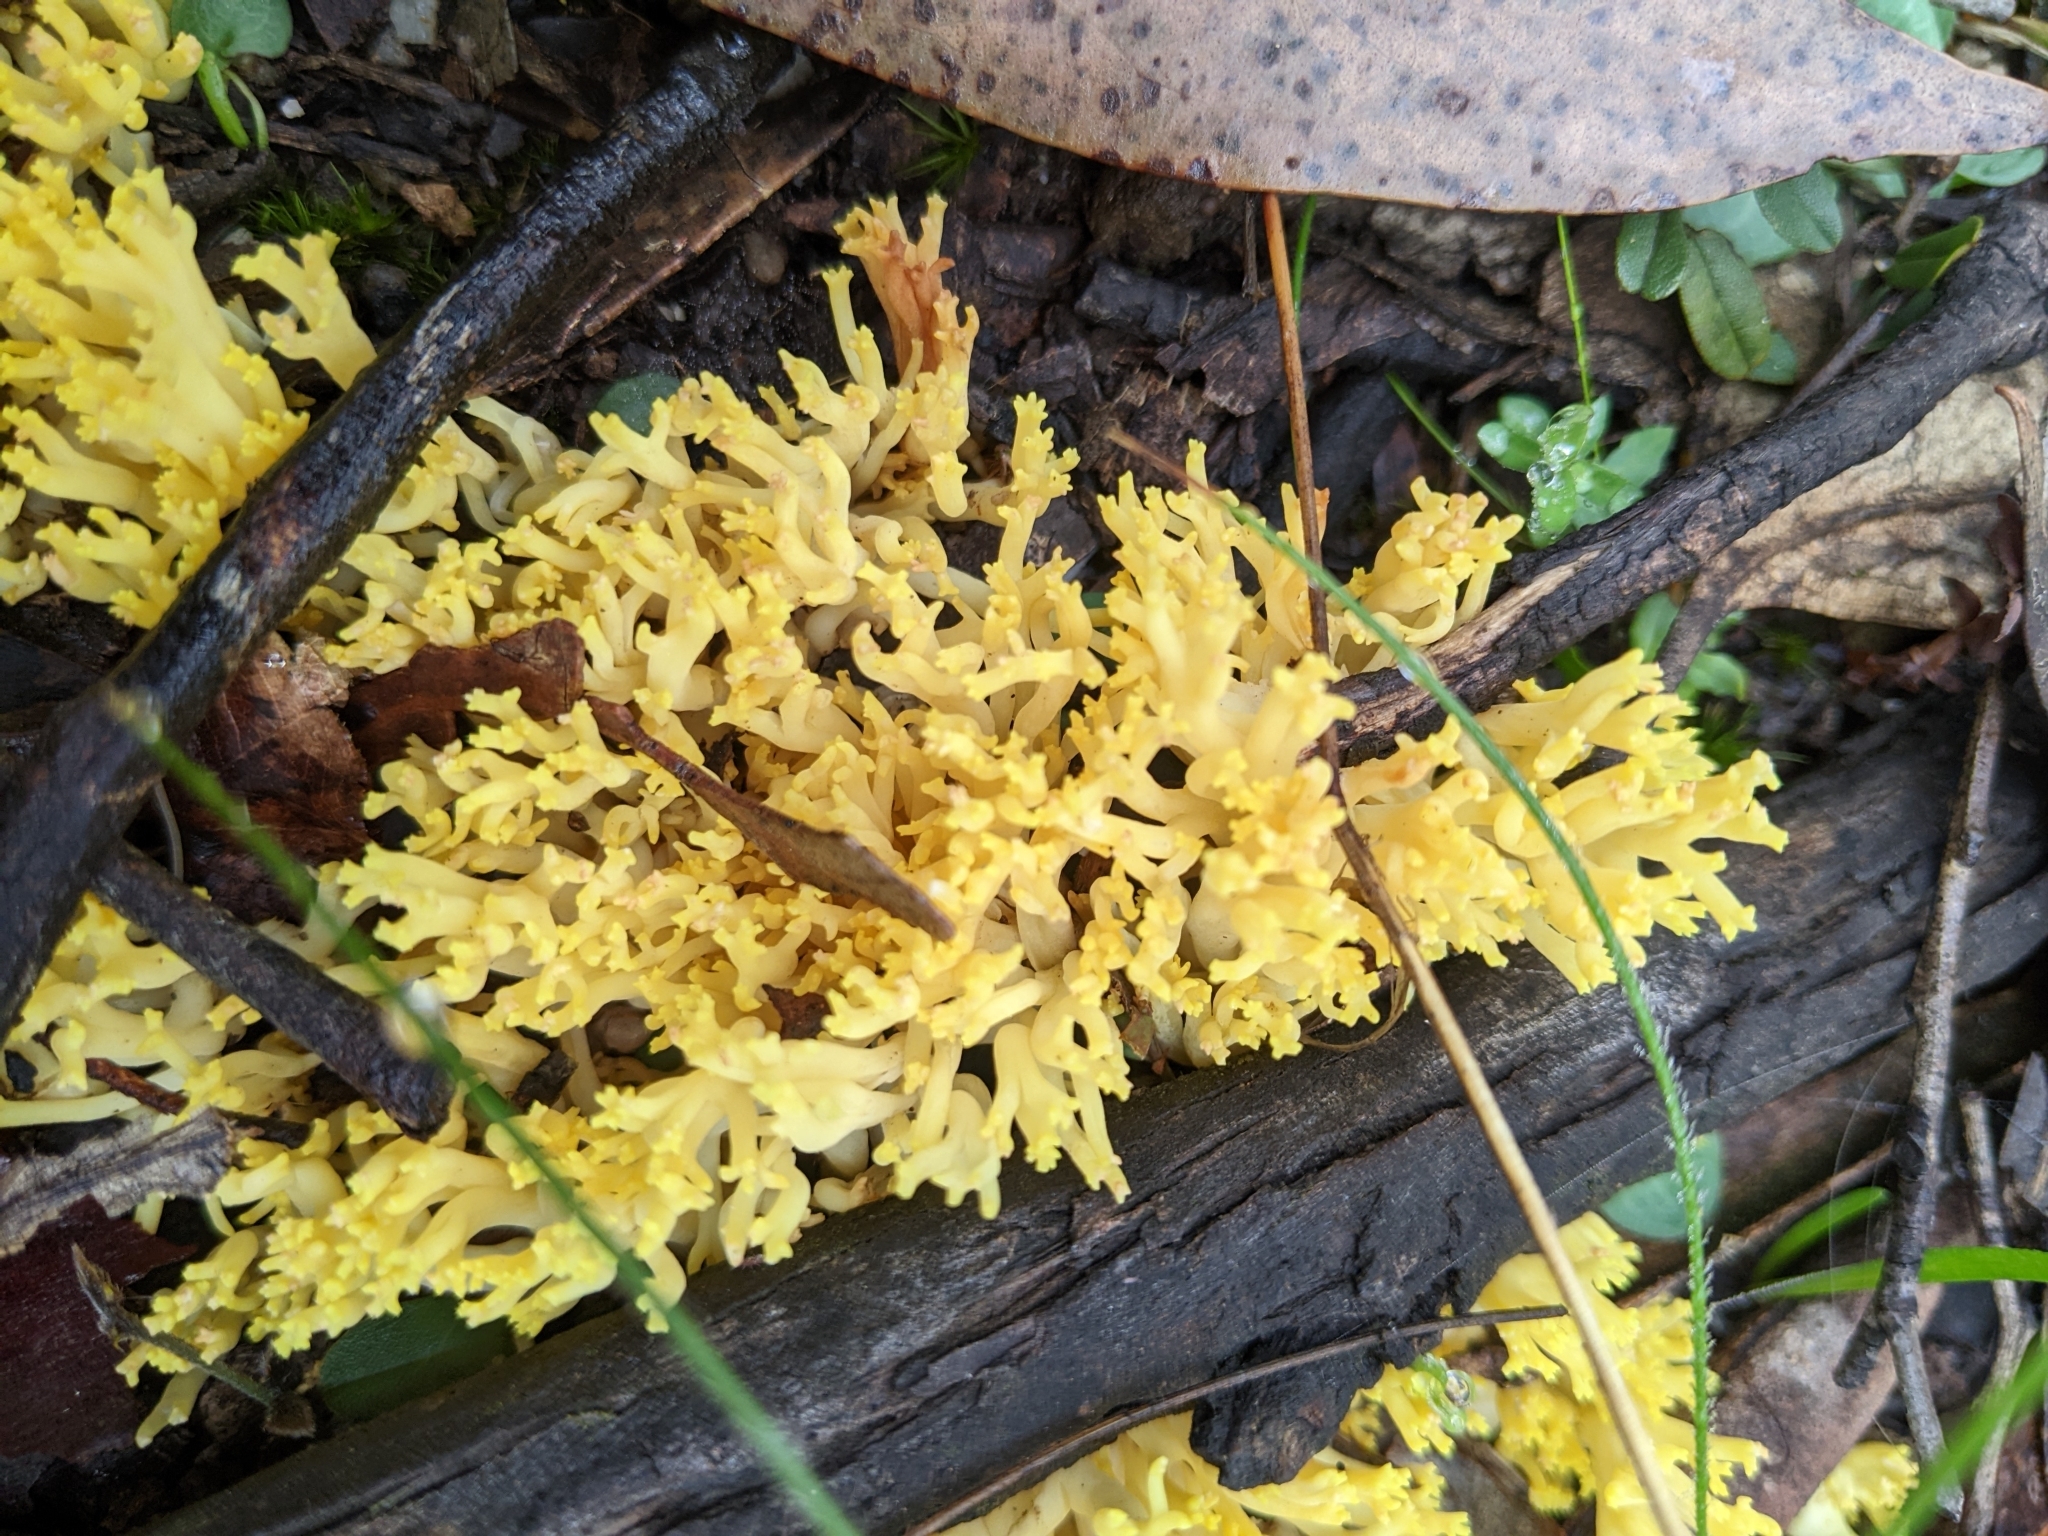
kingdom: Fungi
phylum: Basidiomycota
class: Agaricomycetes
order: Gomphales
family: Gomphaceae
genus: Ramaria
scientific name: Ramaria lorithamnus
